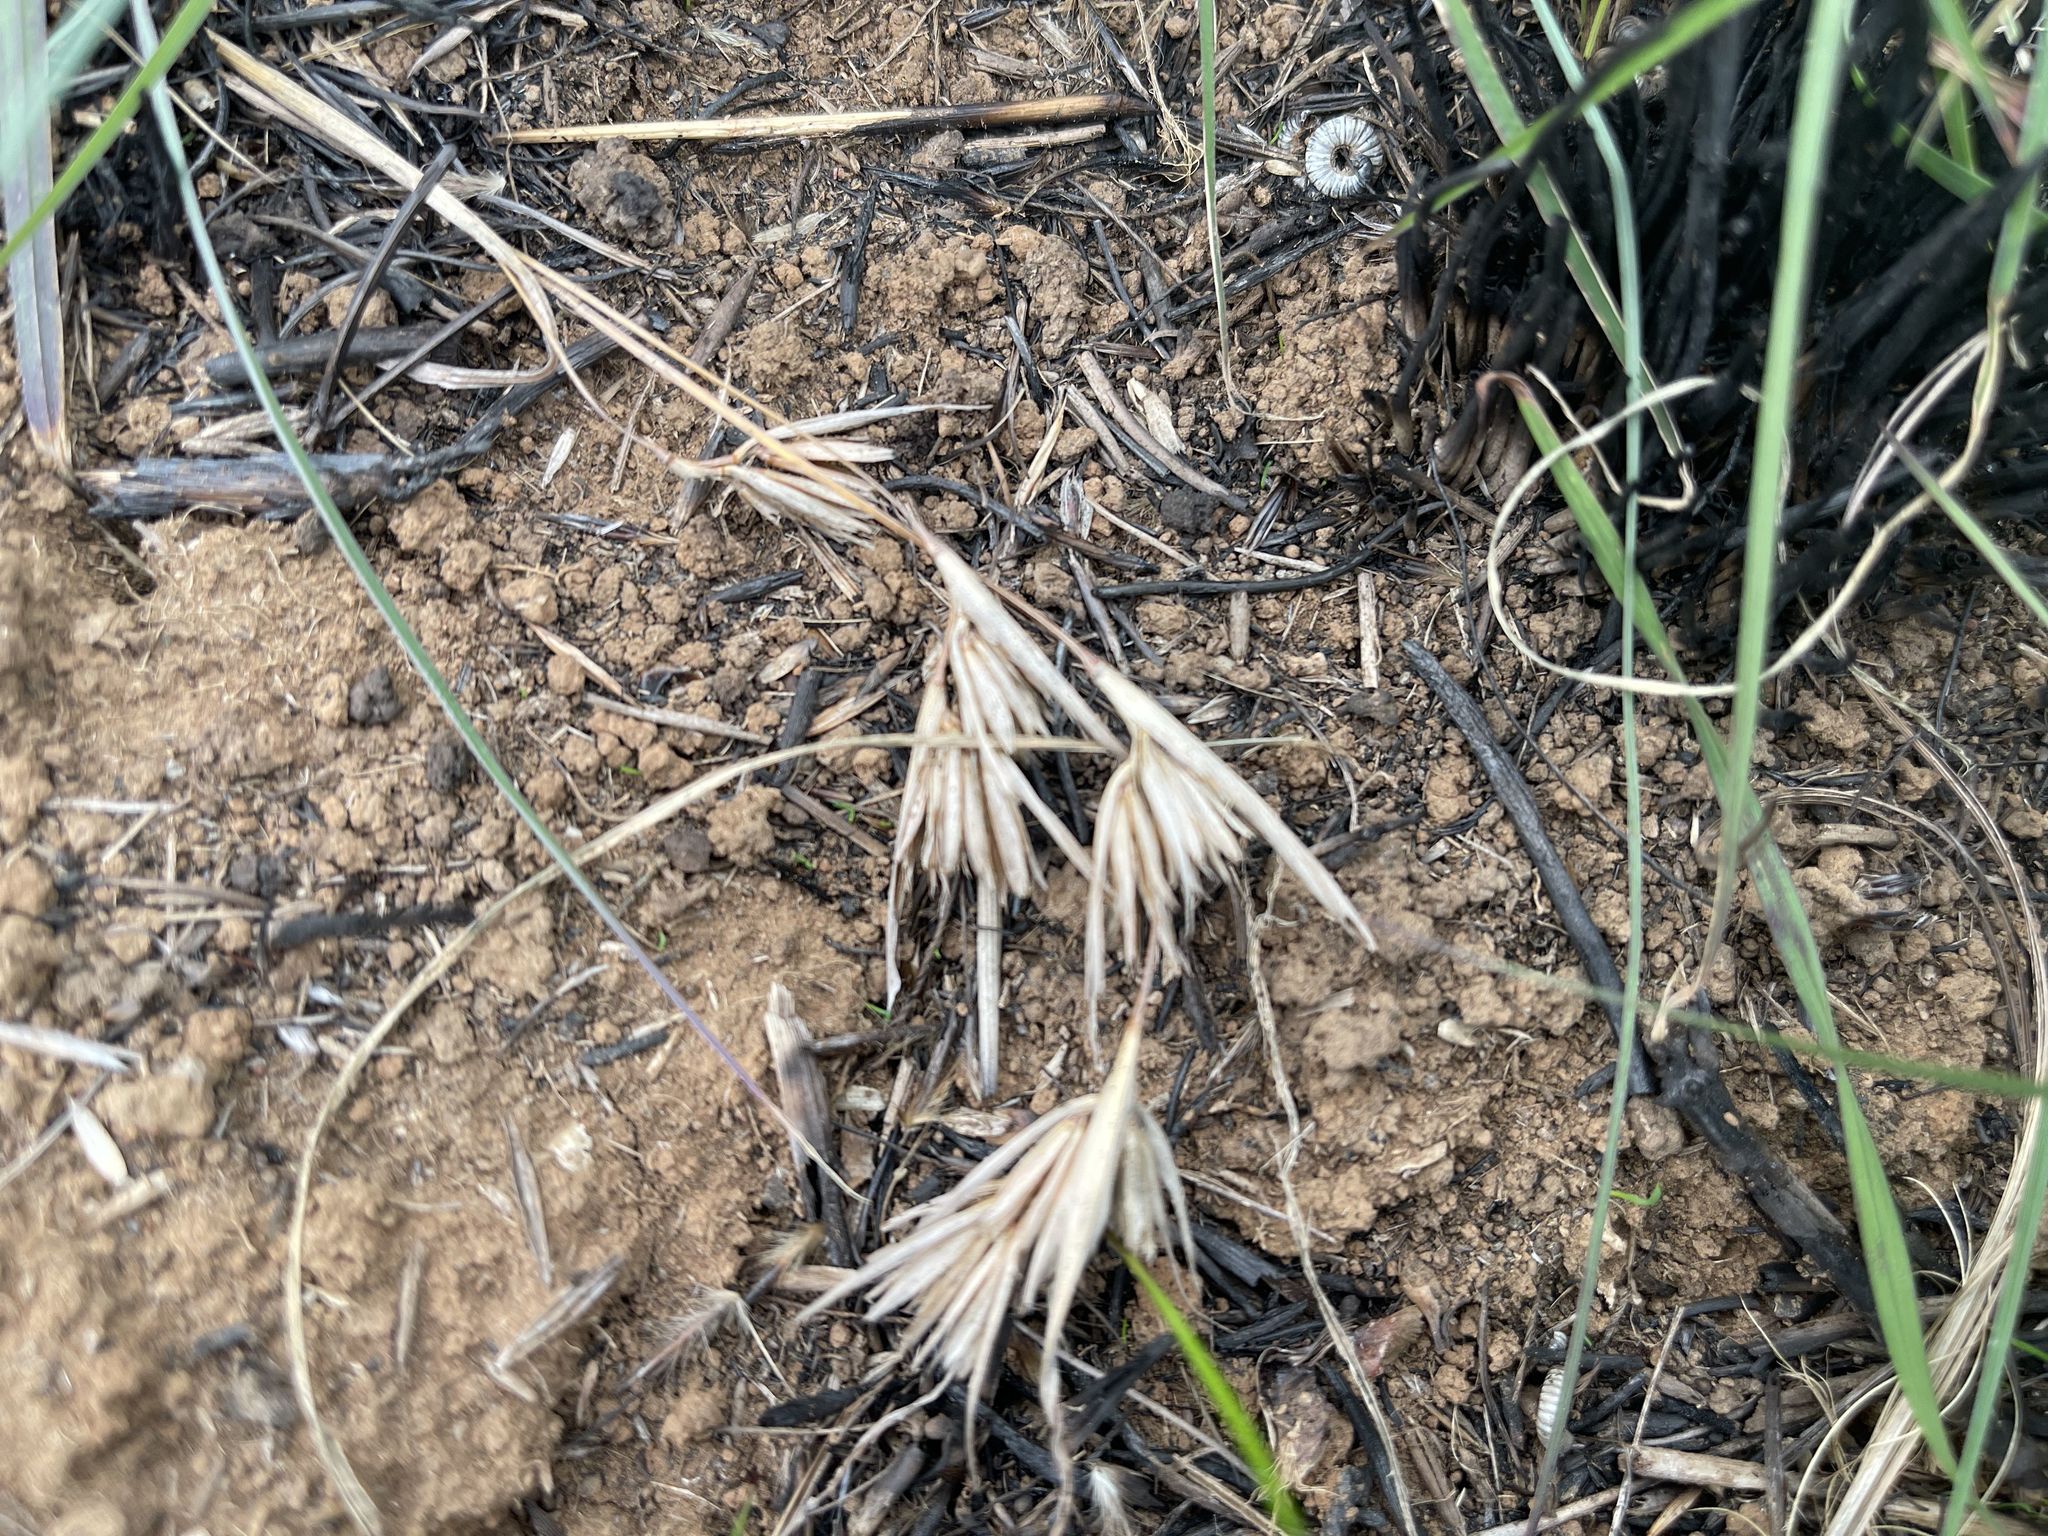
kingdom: Plantae
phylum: Tracheophyta
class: Liliopsida
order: Poales
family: Poaceae
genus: Themeda
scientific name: Themeda triandra
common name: Kangaroo grass
